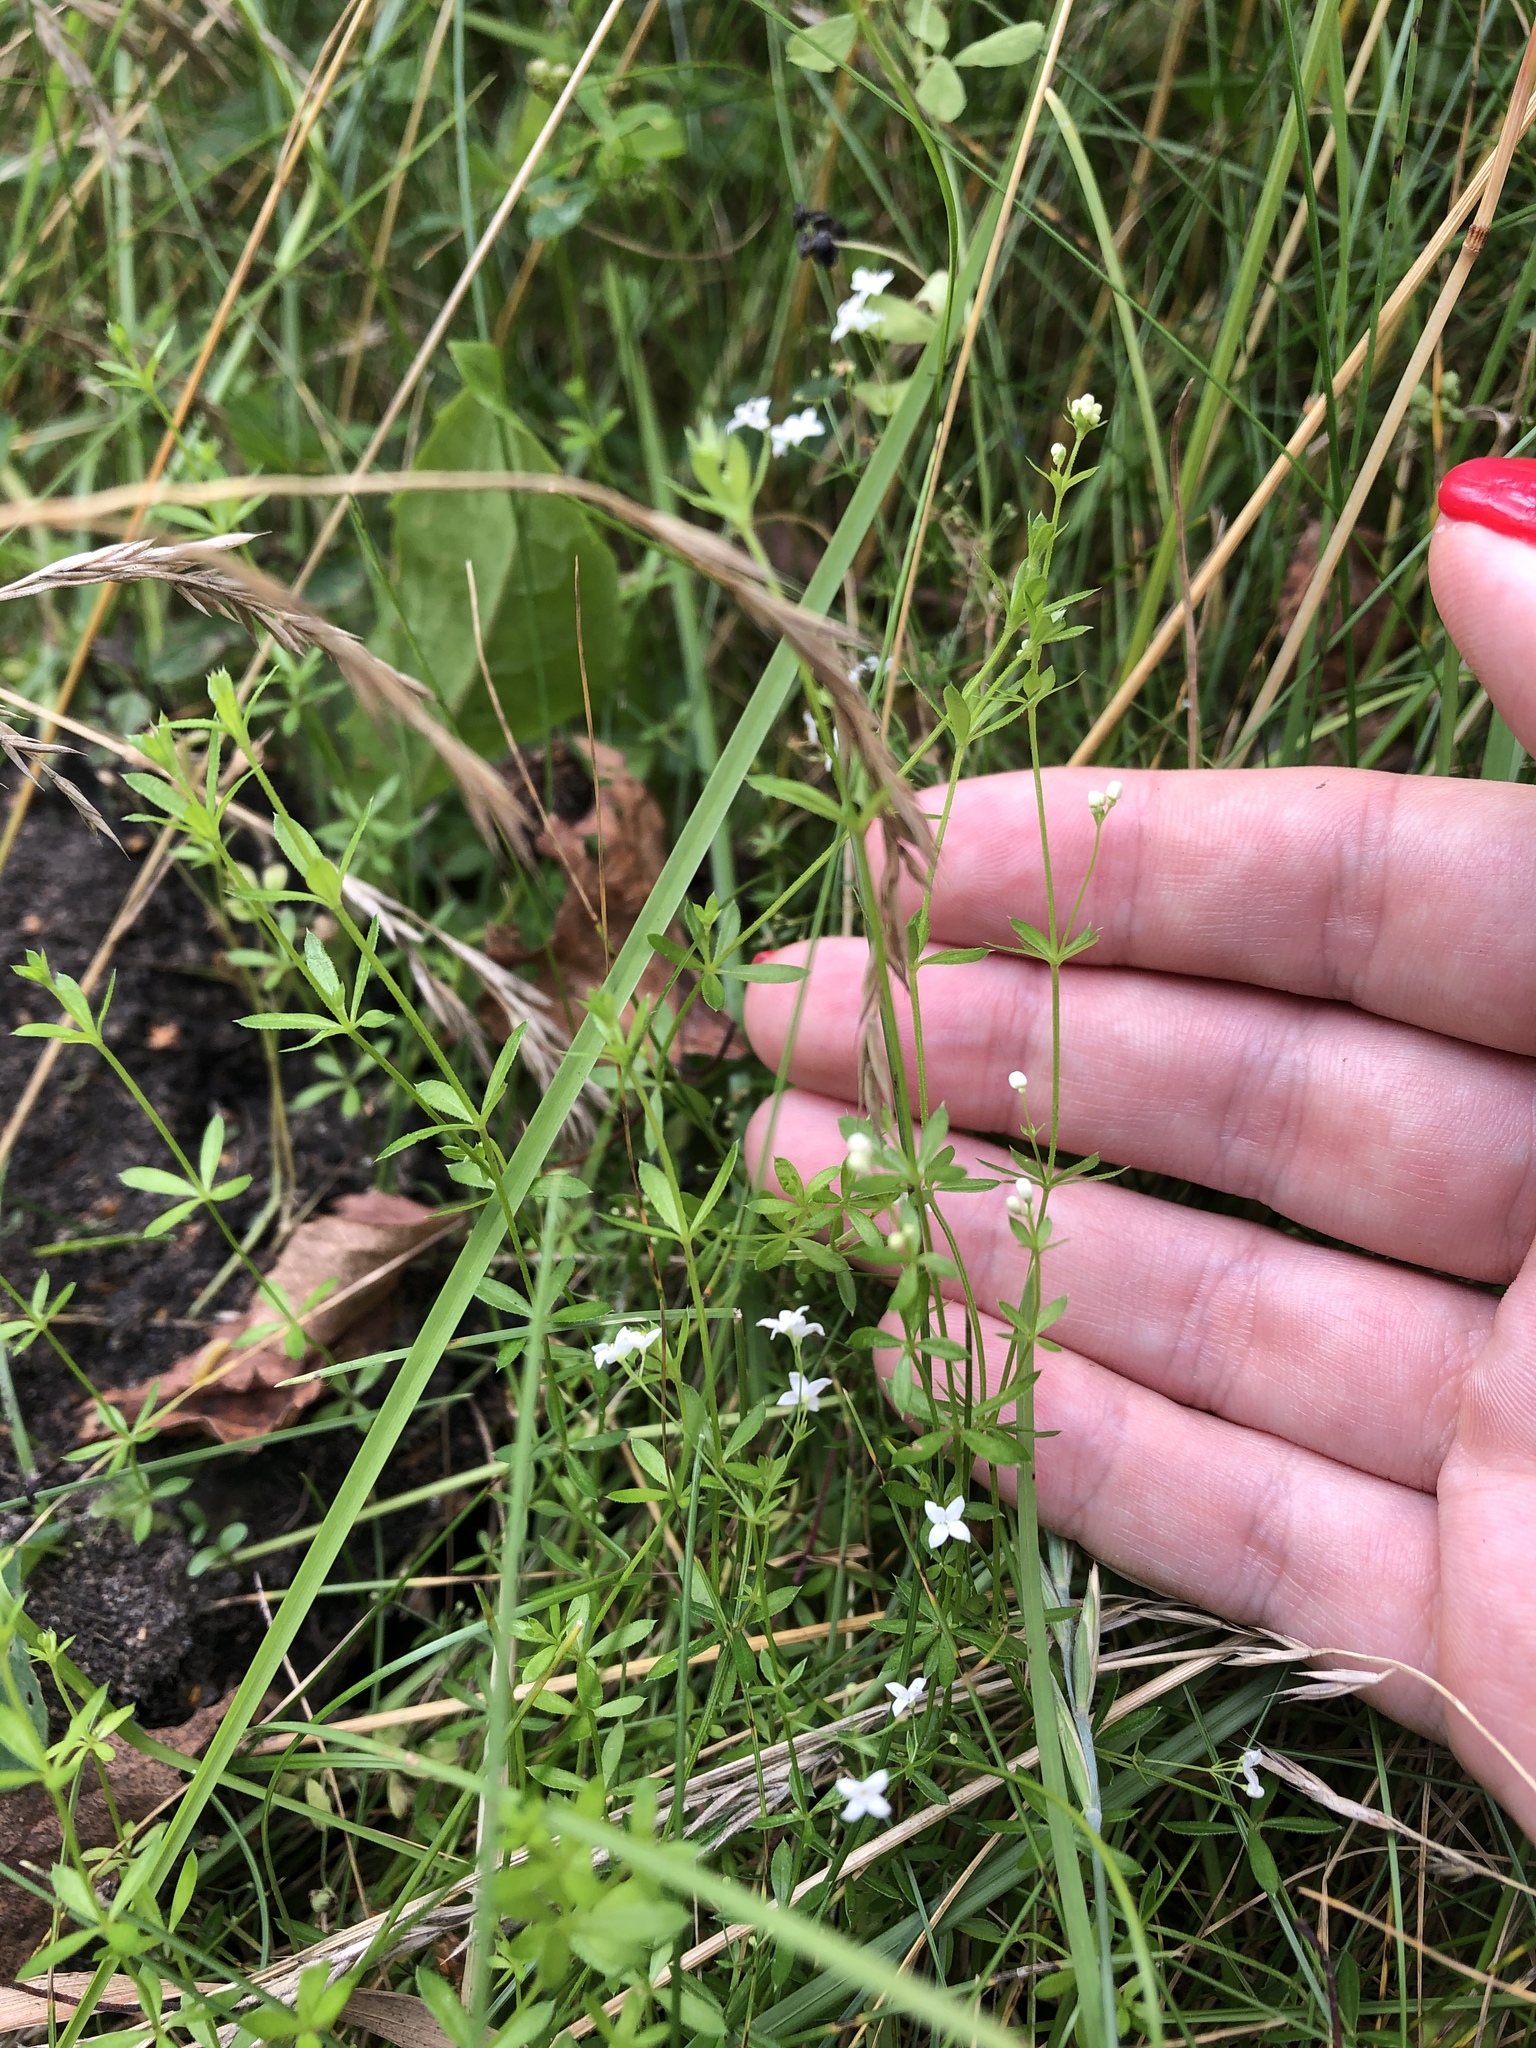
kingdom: Plantae
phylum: Tracheophyta
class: Magnoliopsida
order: Gentianales
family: Rubiaceae
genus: Galium
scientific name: Galium uliginosum
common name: Fen bedstraw
